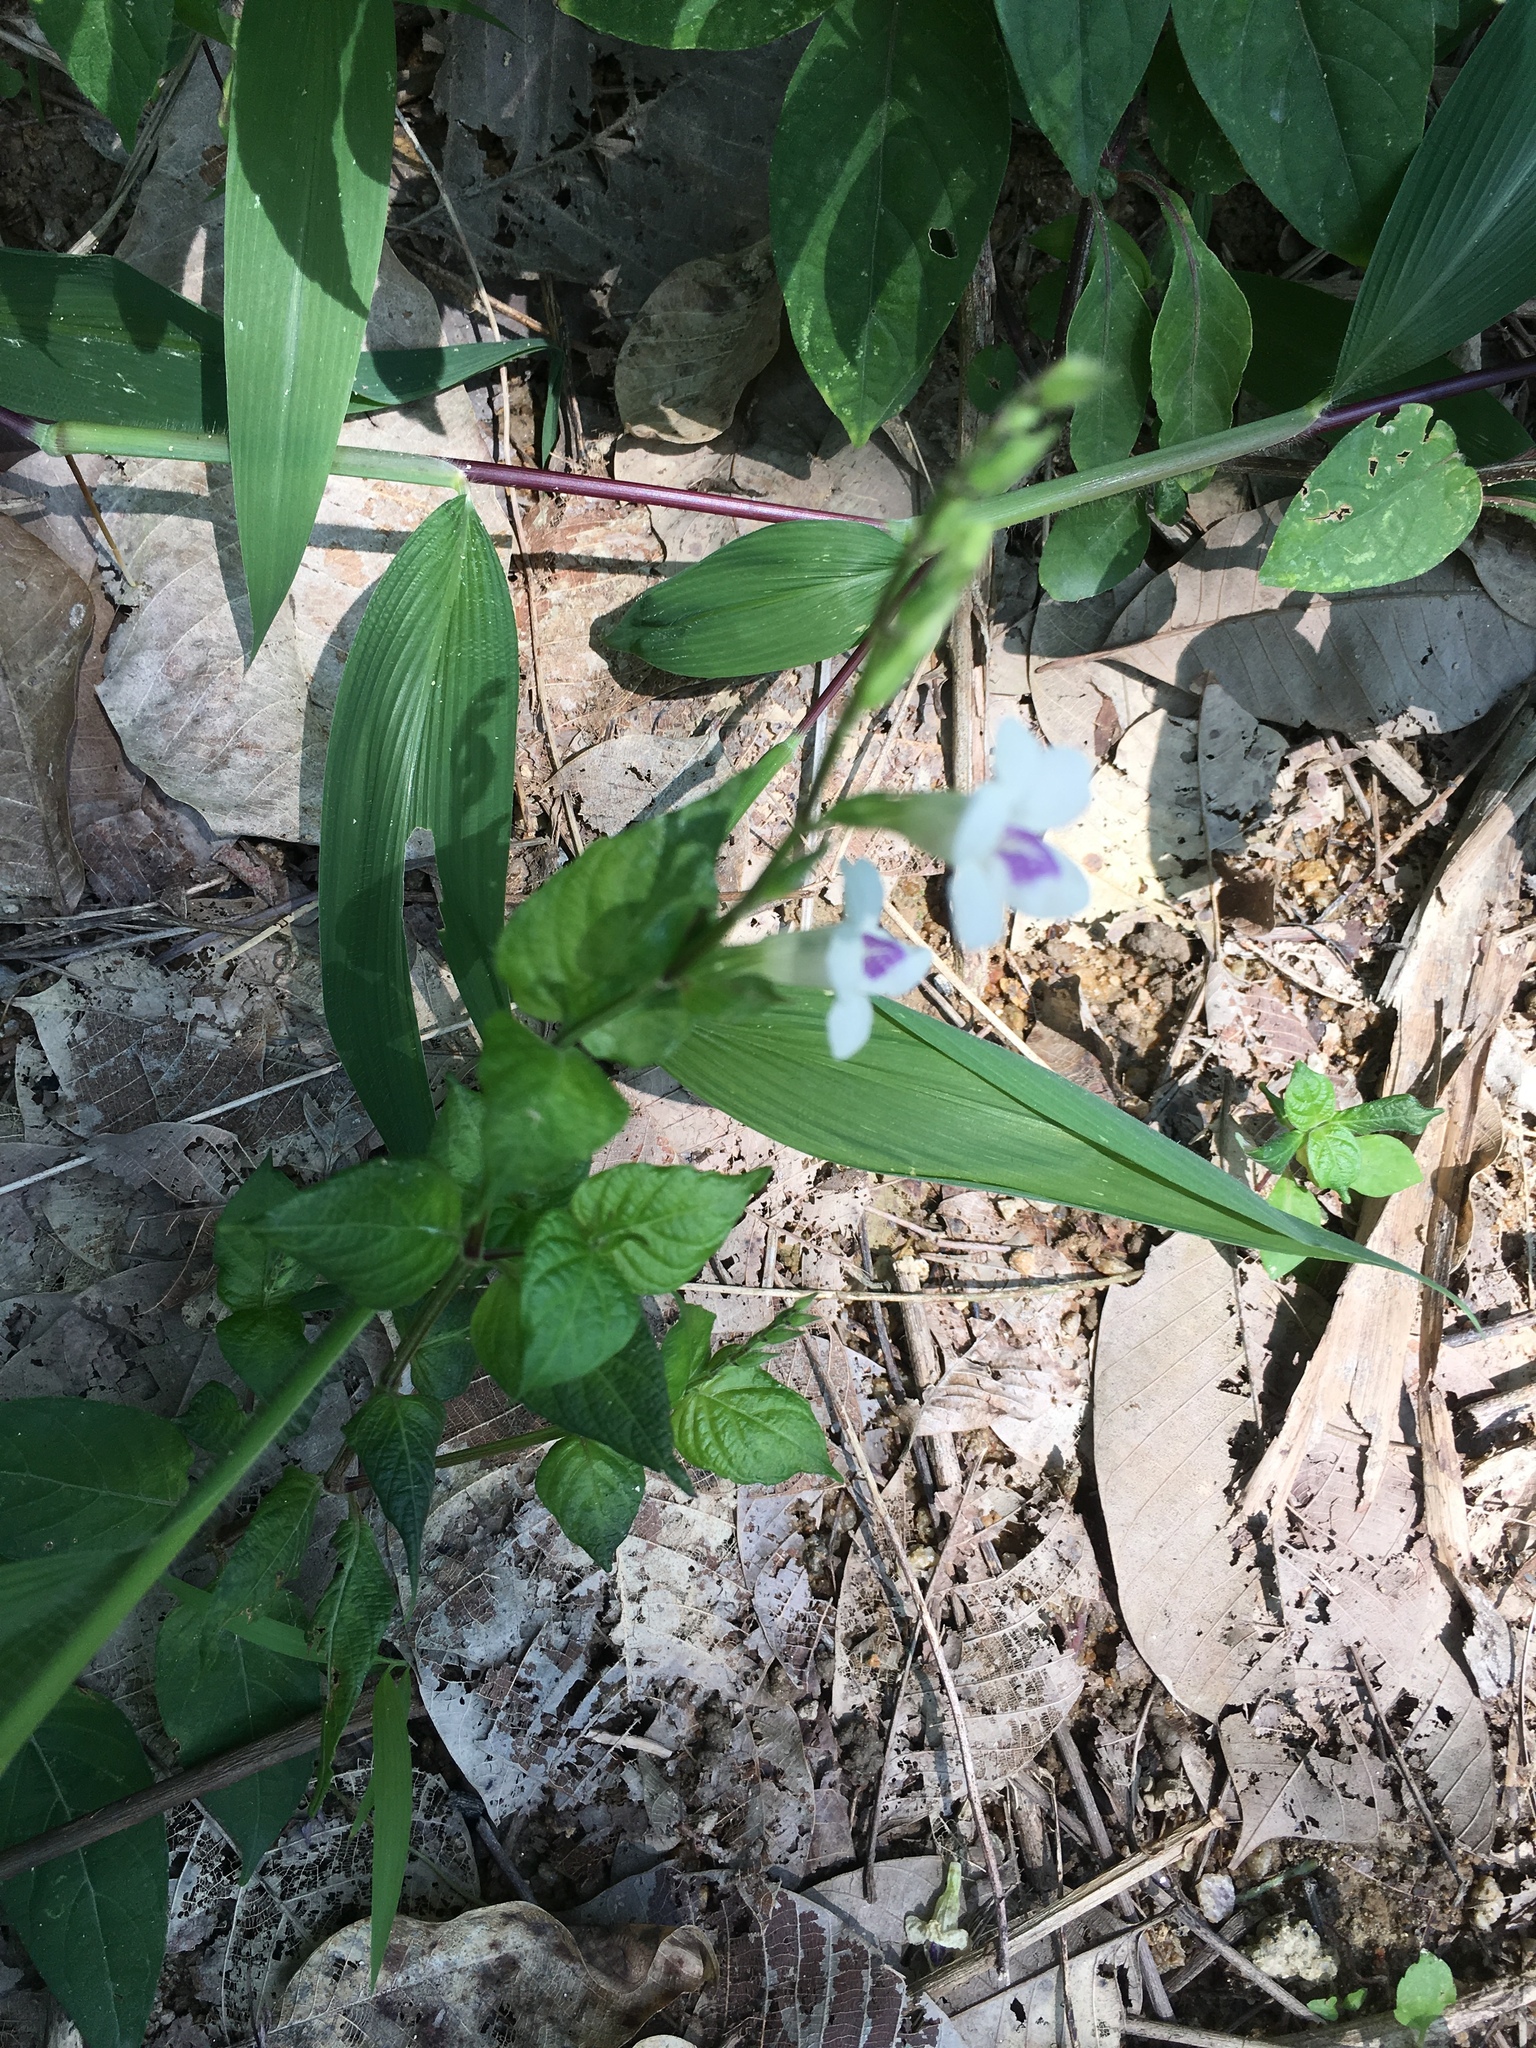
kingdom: Plantae
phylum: Tracheophyta
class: Magnoliopsida
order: Lamiales
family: Acanthaceae
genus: Asystasia
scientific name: Asystasia intrusa
